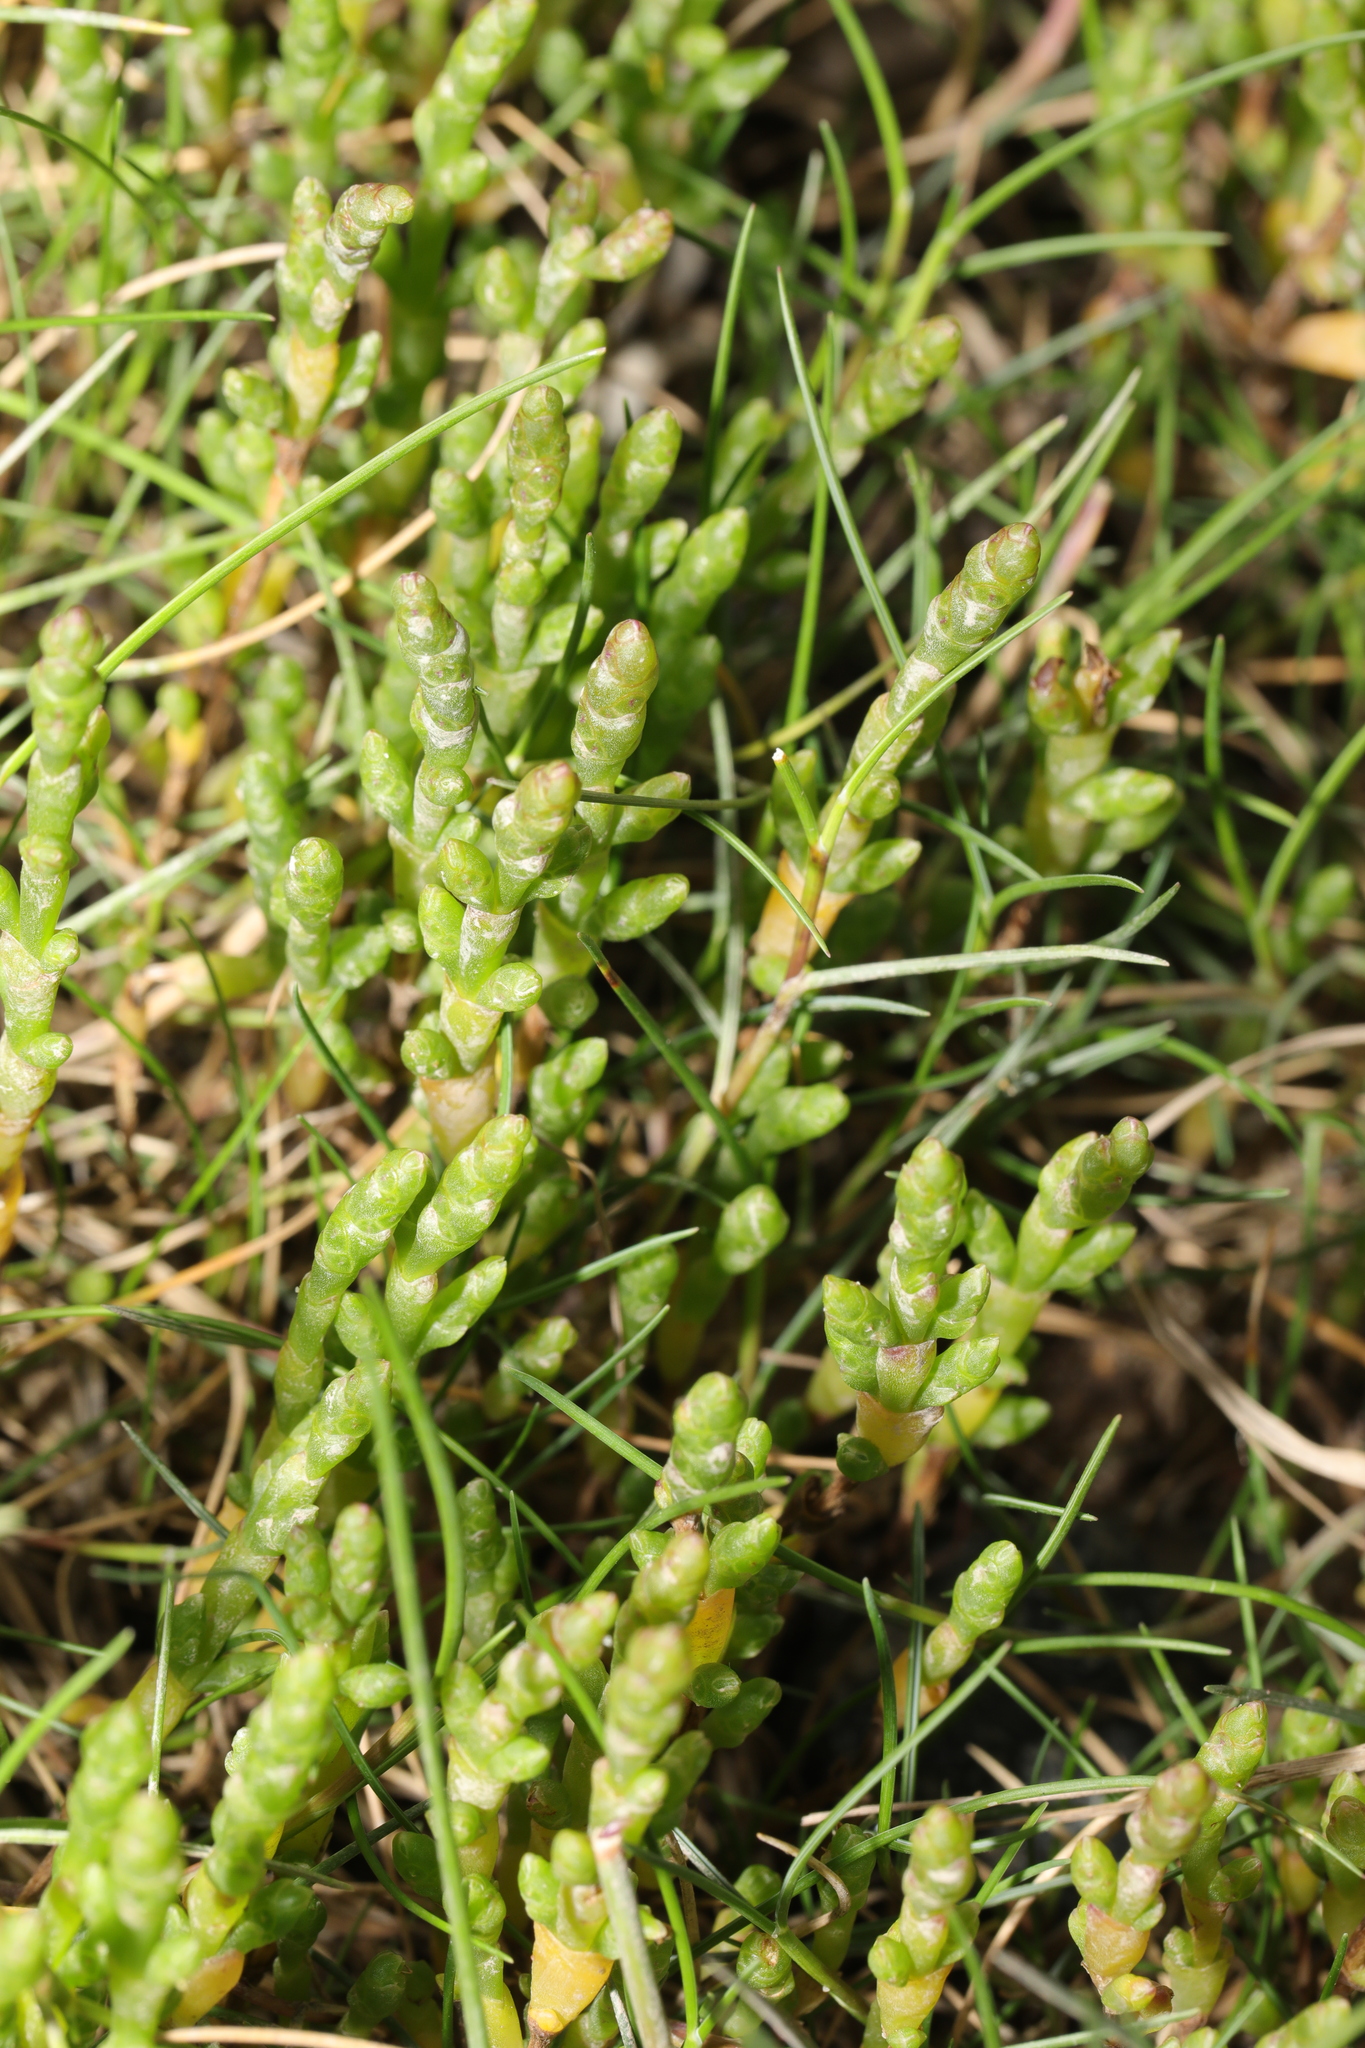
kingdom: Plantae
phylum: Tracheophyta
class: Magnoliopsida
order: Caryophyllales
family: Amaranthaceae
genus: Salicornia
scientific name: Salicornia europaea
